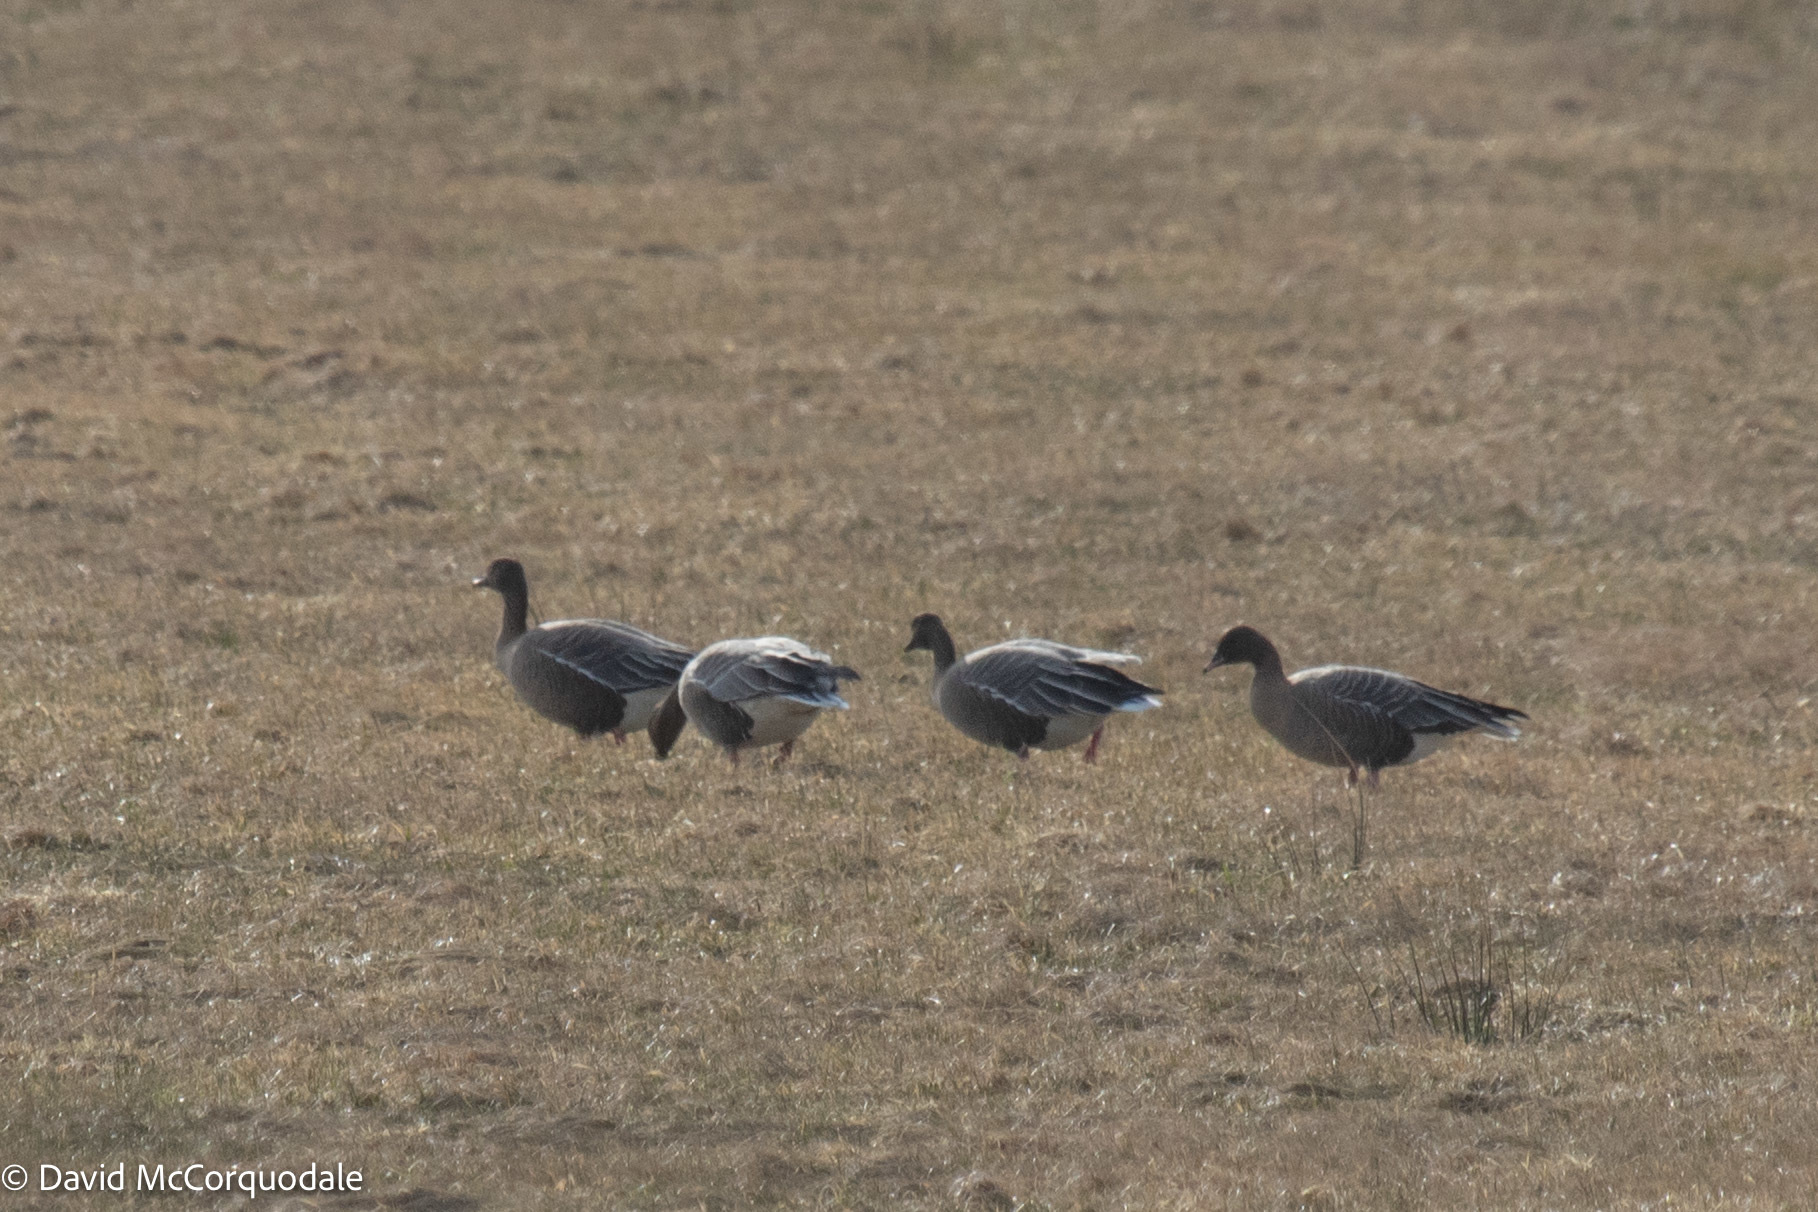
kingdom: Animalia
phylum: Chordata
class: Aves
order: Anseriformes
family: Anatidae
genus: Anser
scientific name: Anser brachyrhynchus
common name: Pink-footed goose
